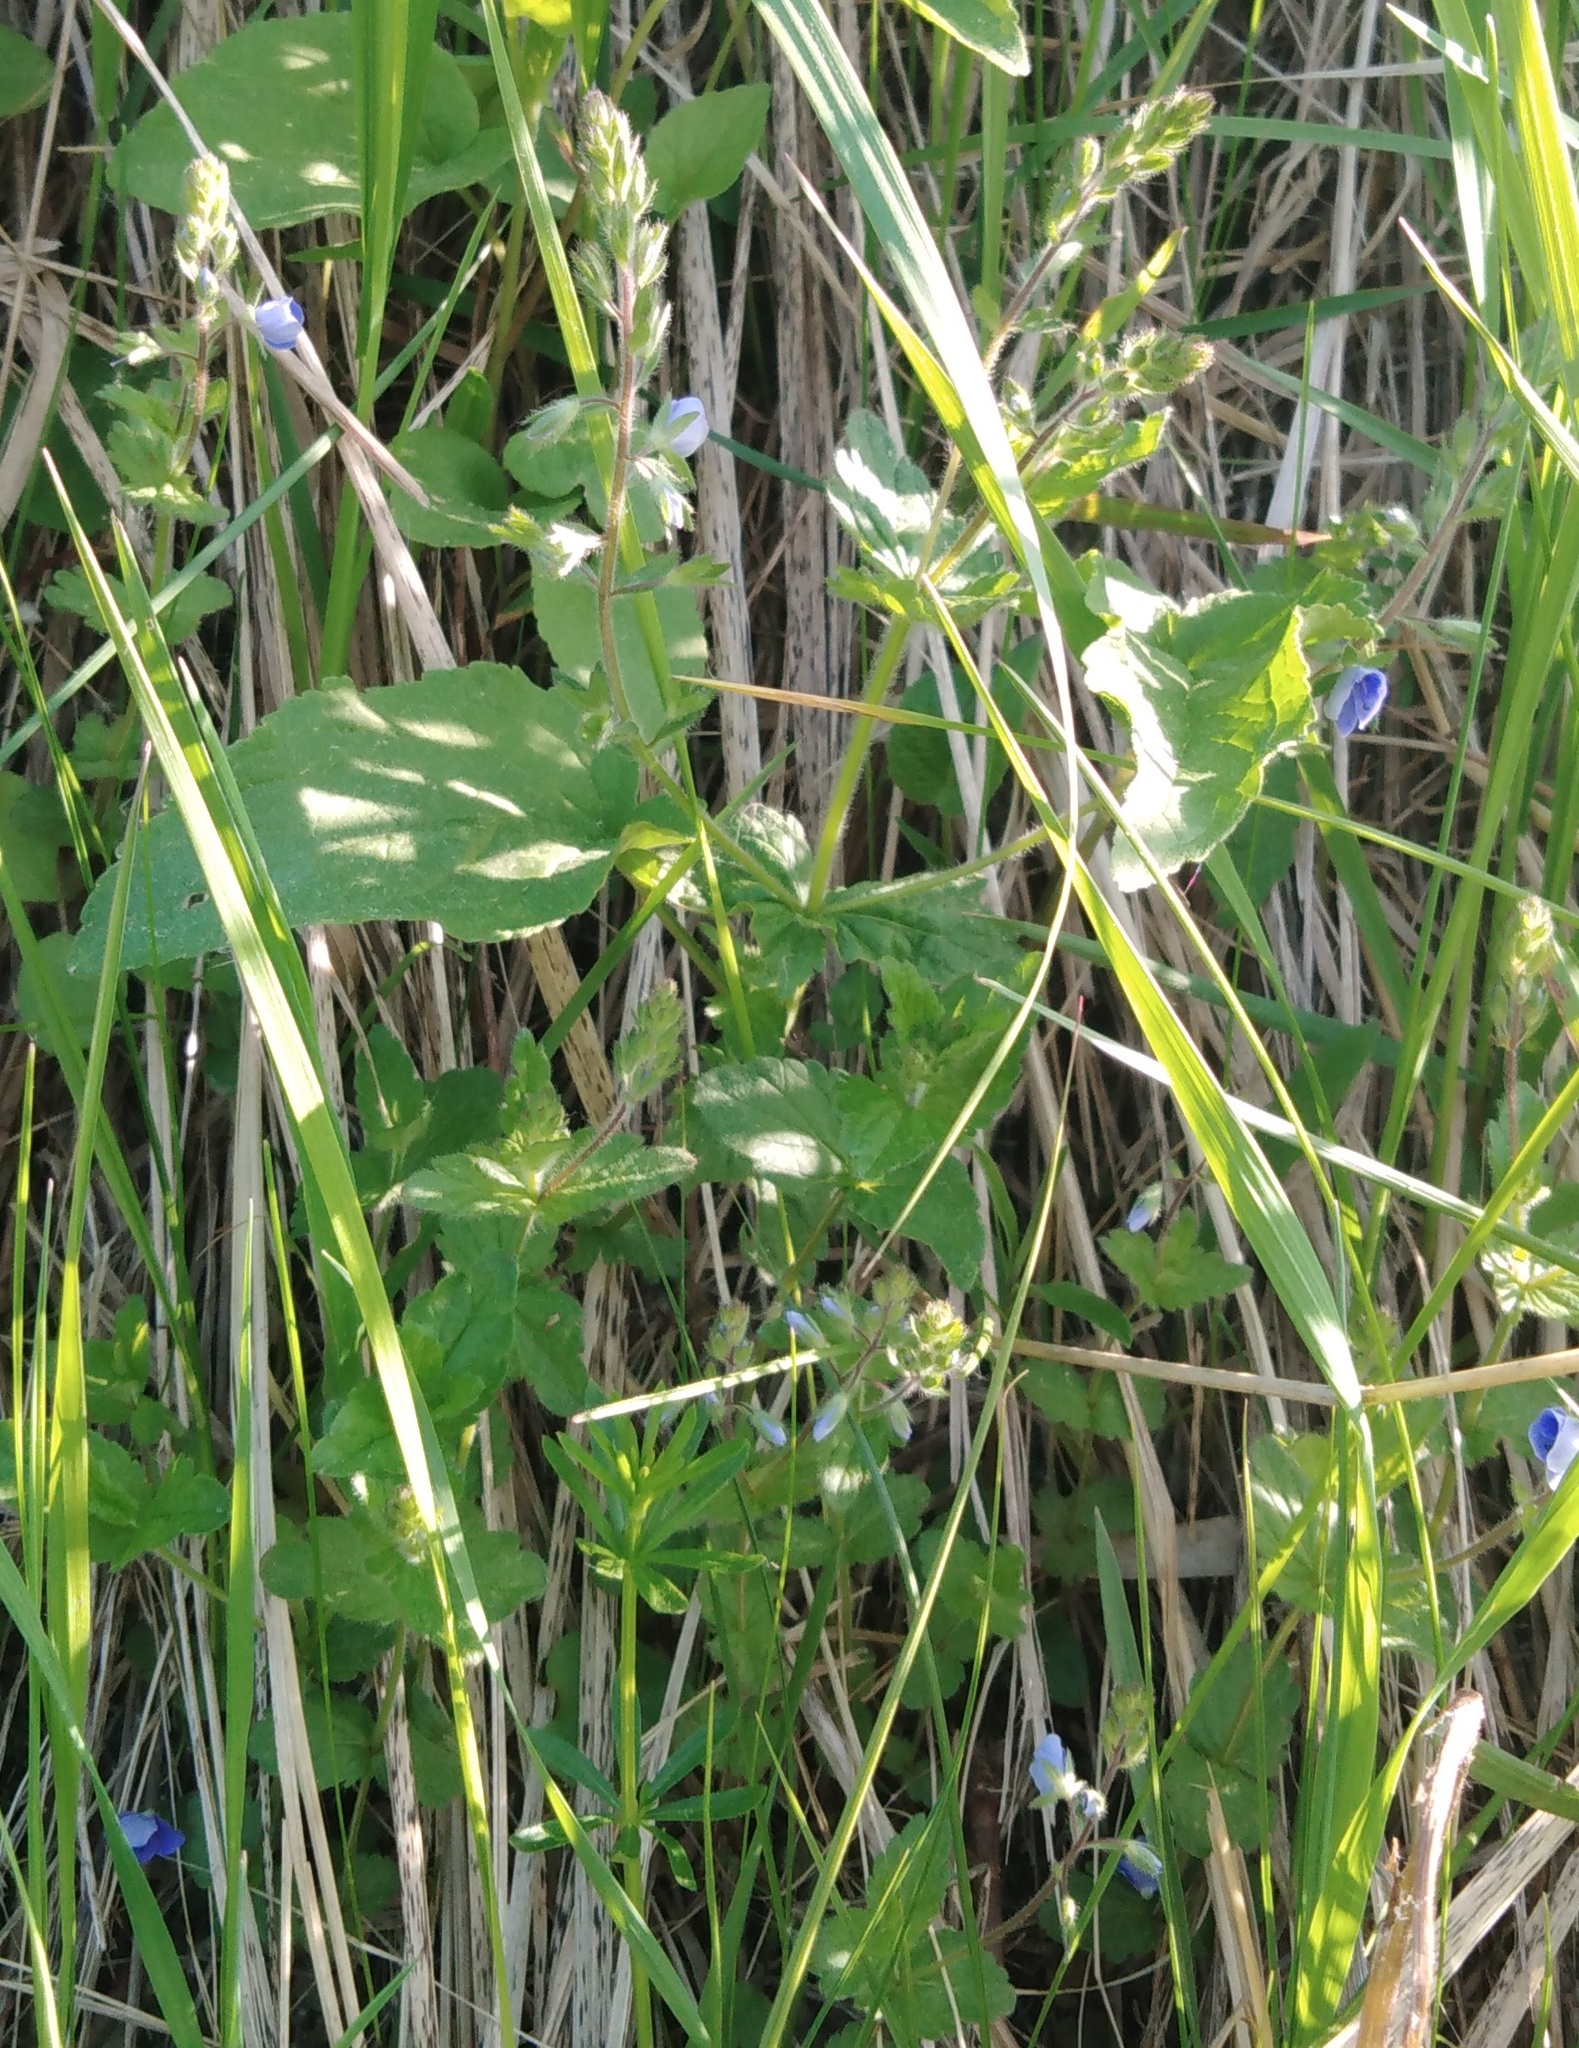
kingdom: Plantae
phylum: Tracheophyta
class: Magnoliopsida
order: Lamiales
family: Plantaginaceae
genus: Veronica
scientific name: Veronica chamaedrys
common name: Germander speedwell
